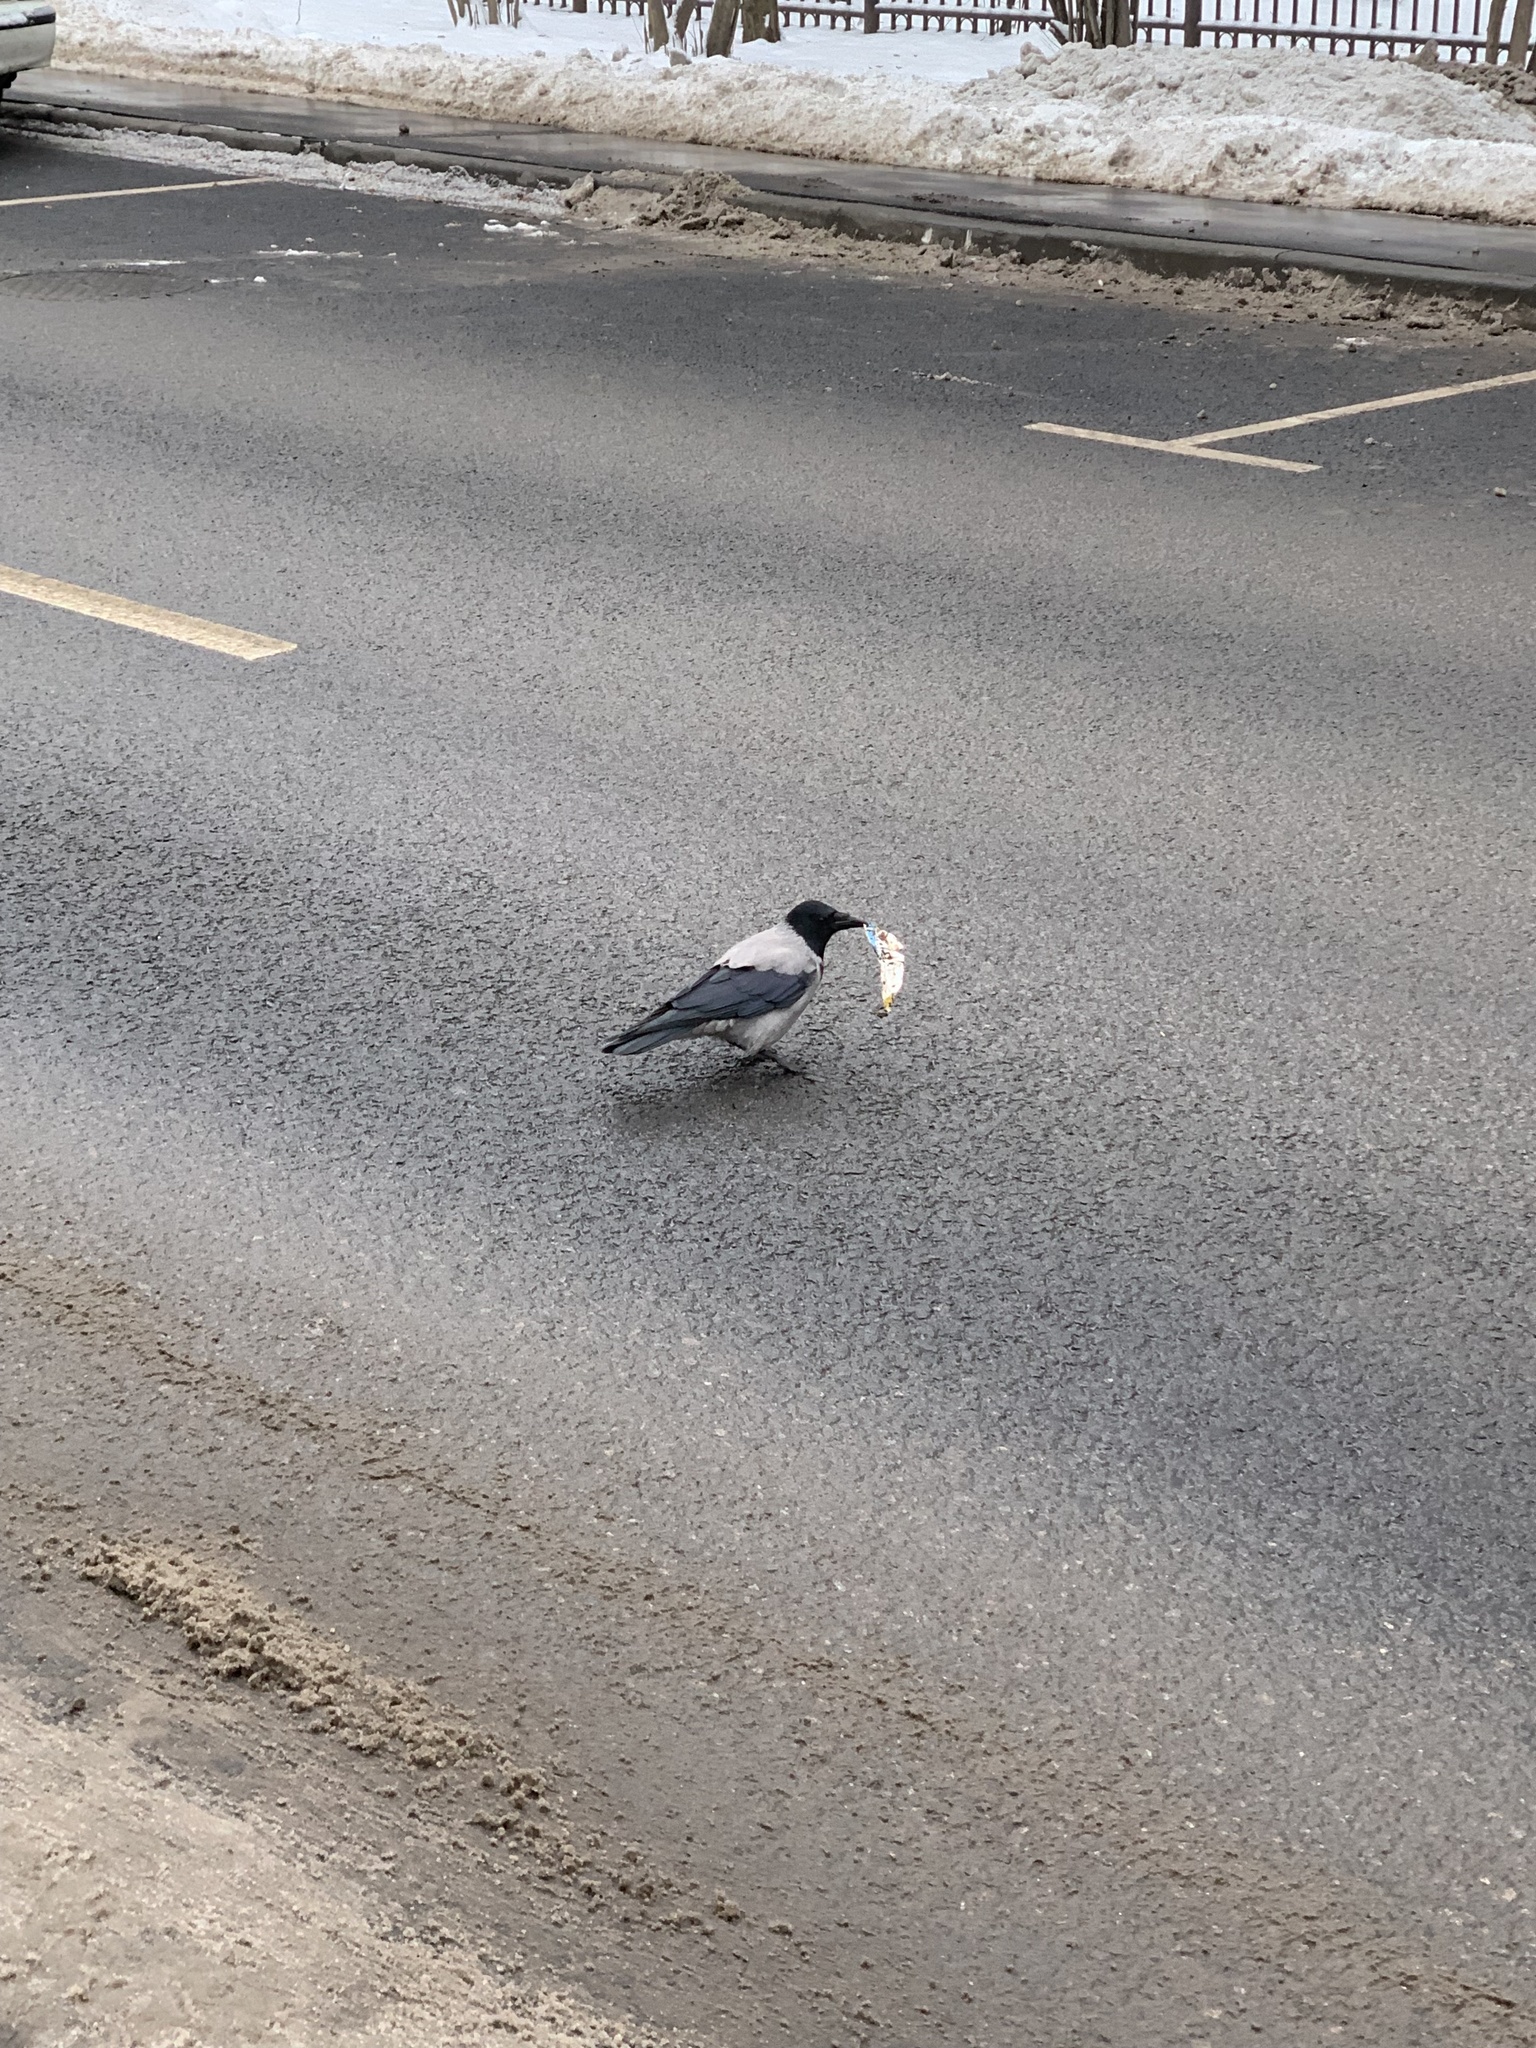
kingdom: Animalia
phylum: Chordata
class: Aves
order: Passeriformes
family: Corvidae
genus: Corvus
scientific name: Corvus cornix
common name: Hooded crow
